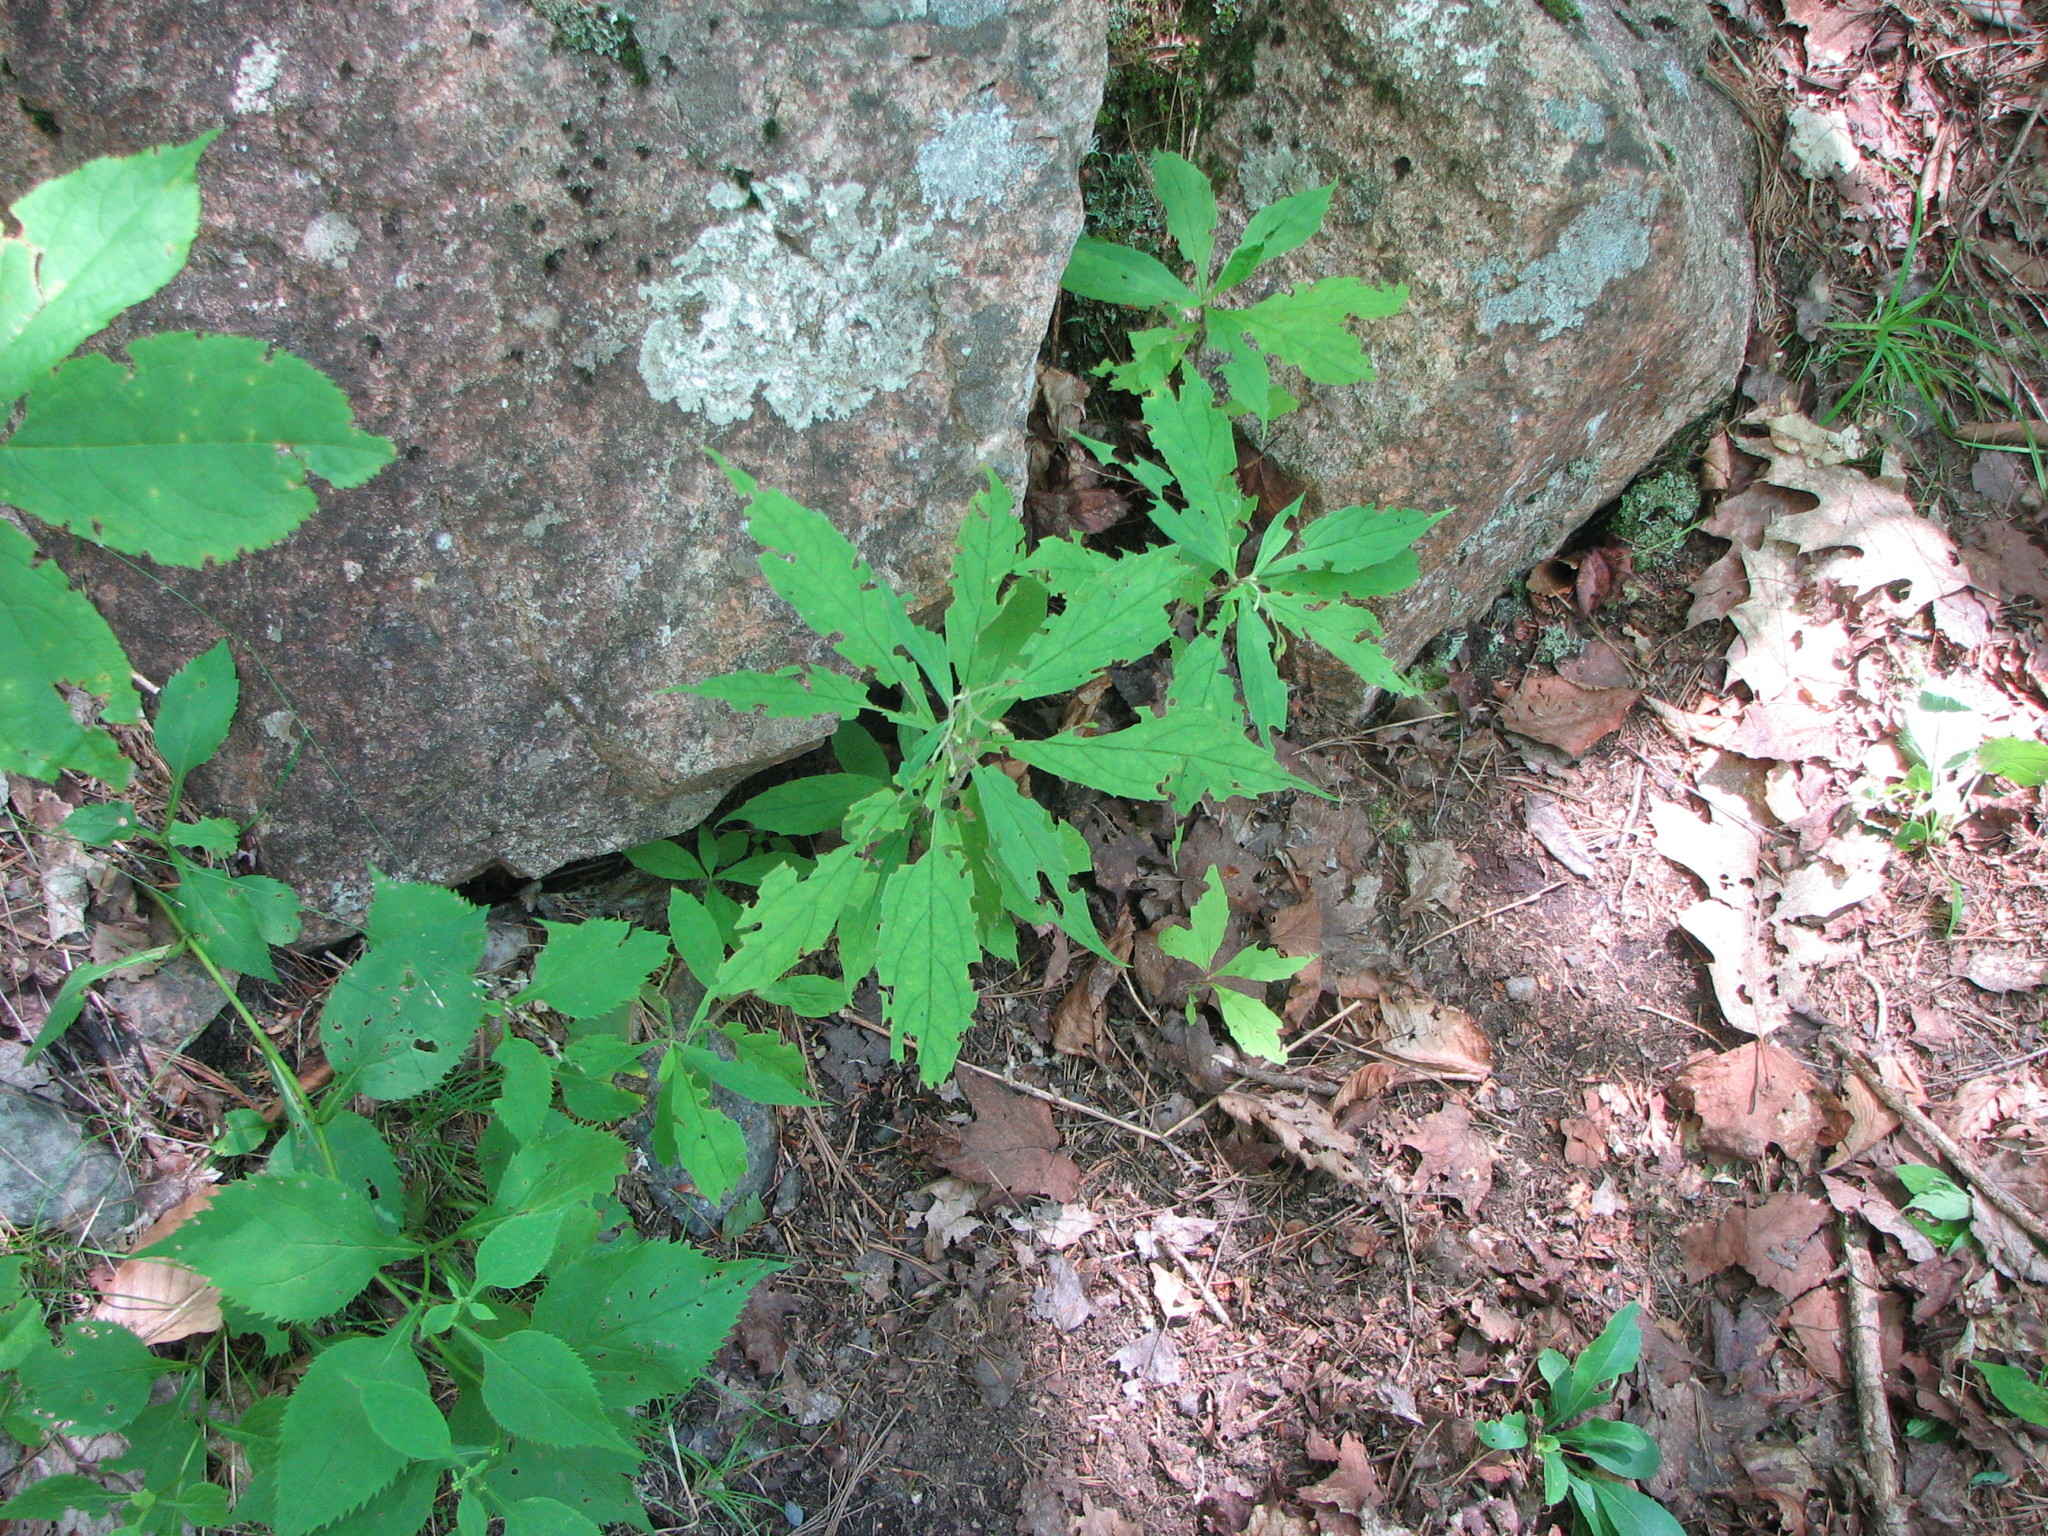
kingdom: Plantae
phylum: Tracheophyta
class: Magnoliopsida
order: Asterales
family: Asteraceae
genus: Oclemena
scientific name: Oclemena acuminata
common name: Mountain aster
